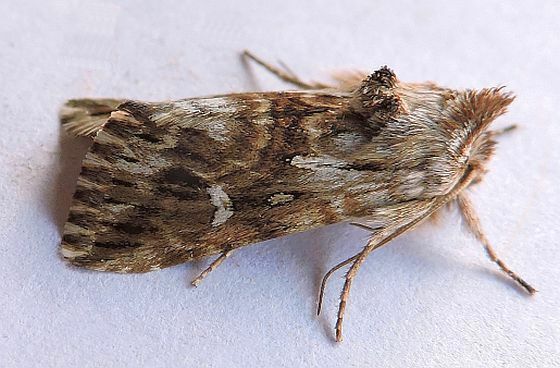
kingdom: Animalia
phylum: Arthropoda
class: Insecta
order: Lepidoptera
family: Noctuidae
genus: Calophasia
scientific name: Calophasia lunula
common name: Toadflax brocade
